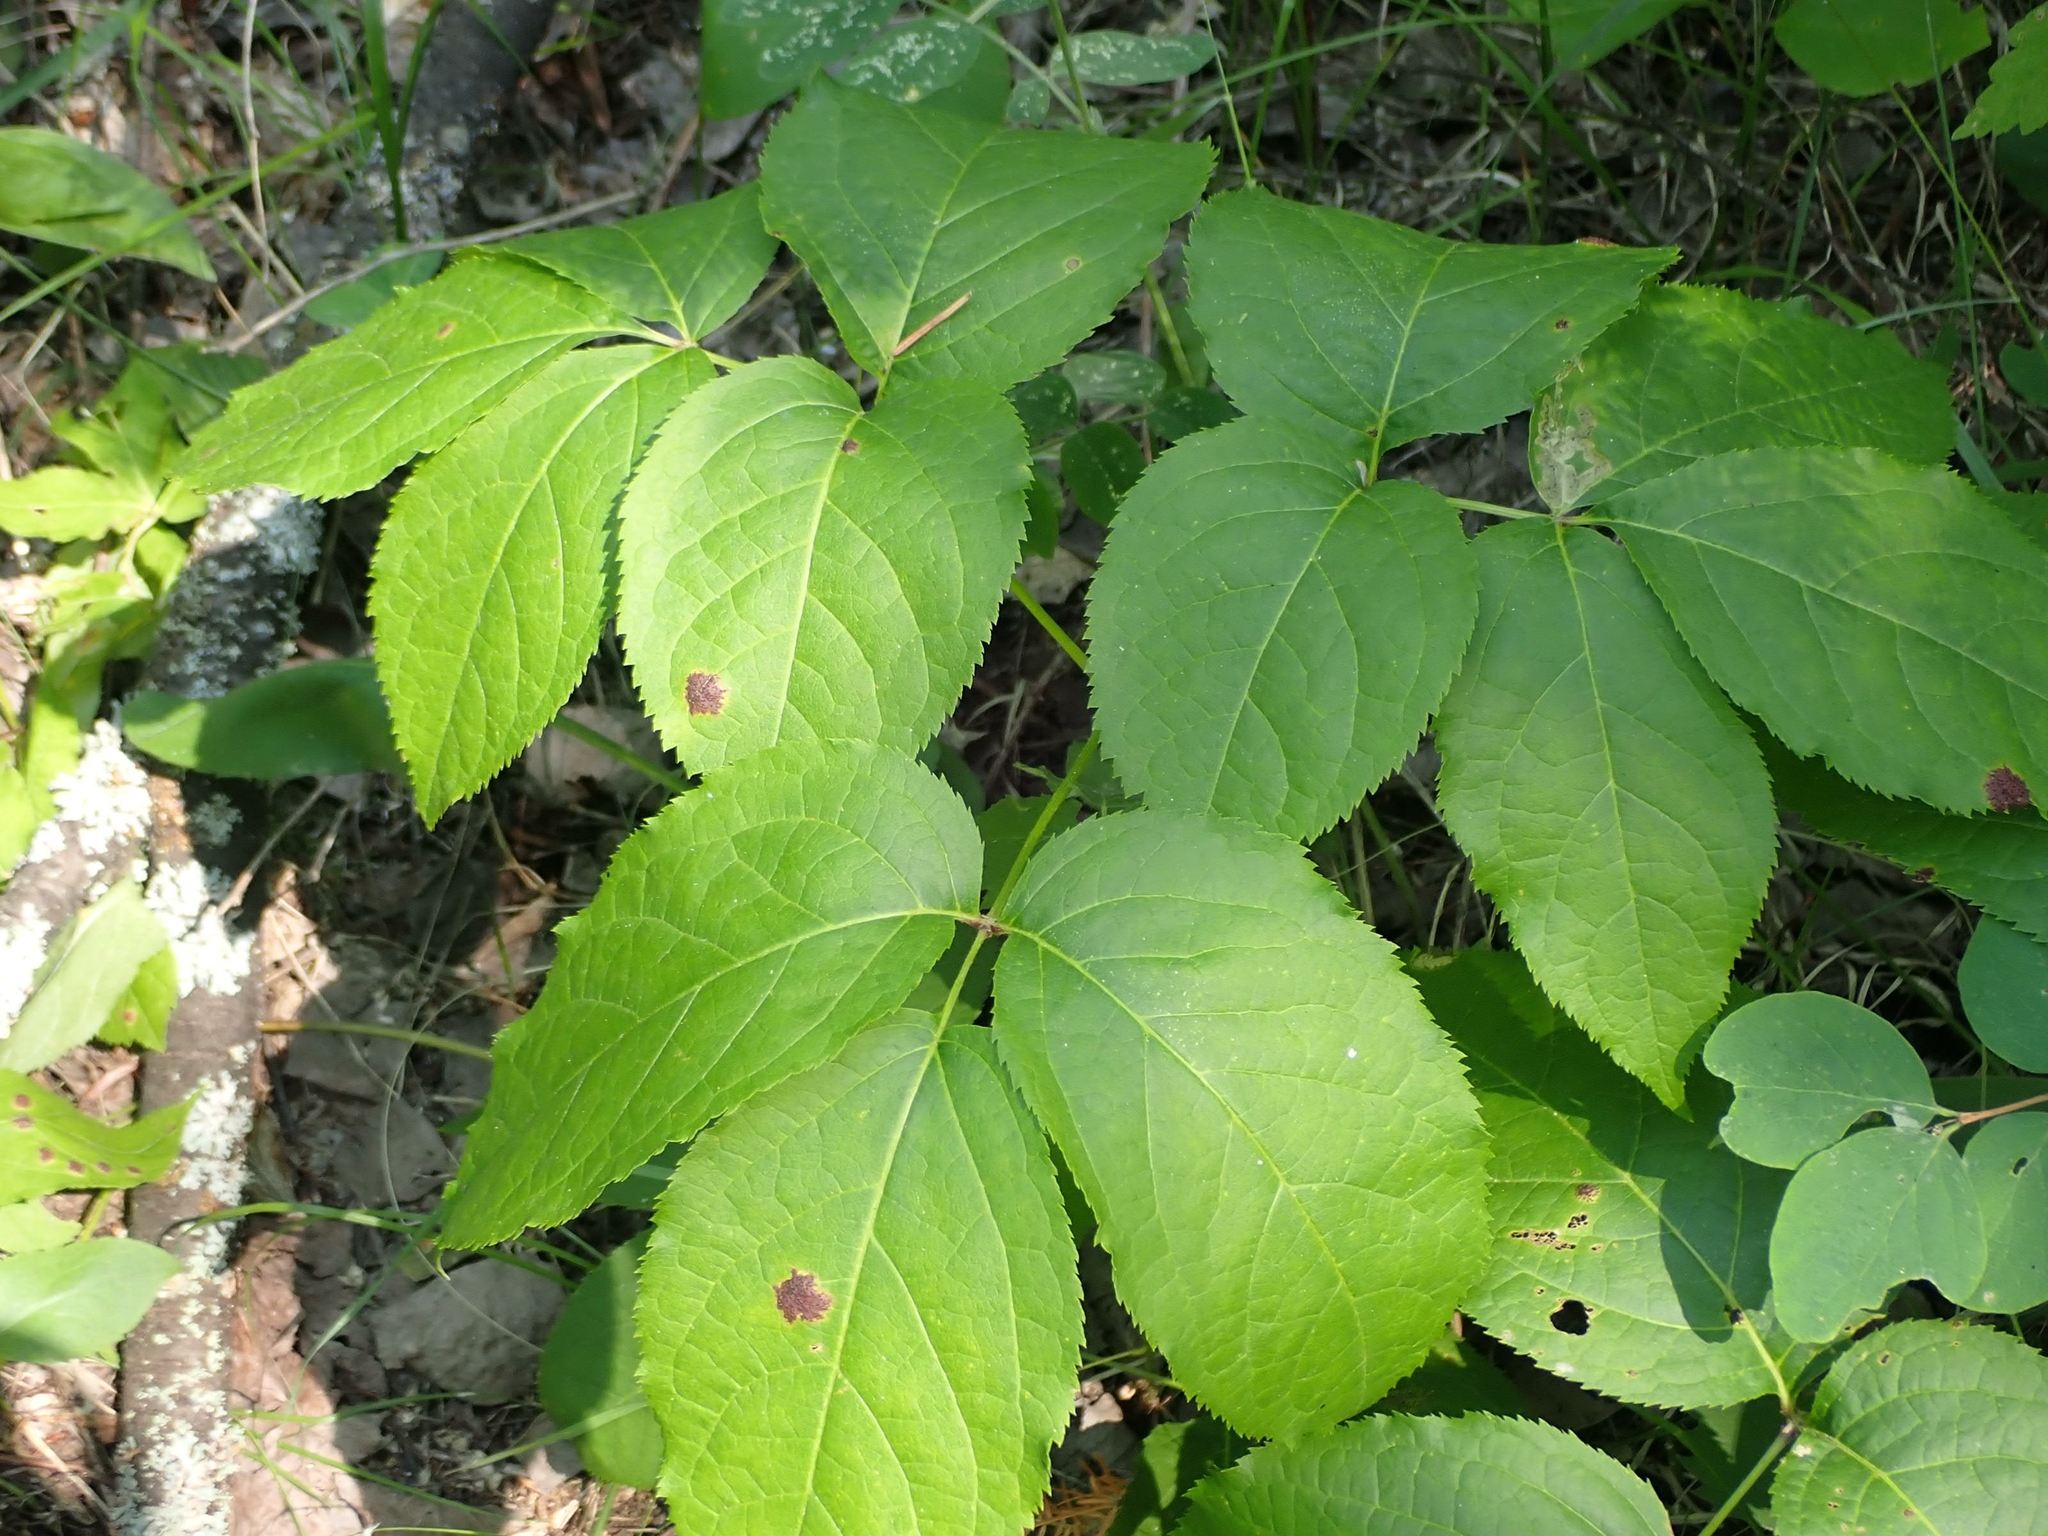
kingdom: Plantae
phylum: Tracheophyta
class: Magnoliopsida
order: Apiales
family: Araliaceae
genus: Aralia
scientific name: Aralia nudicaulis
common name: Wild sarsaparilla
